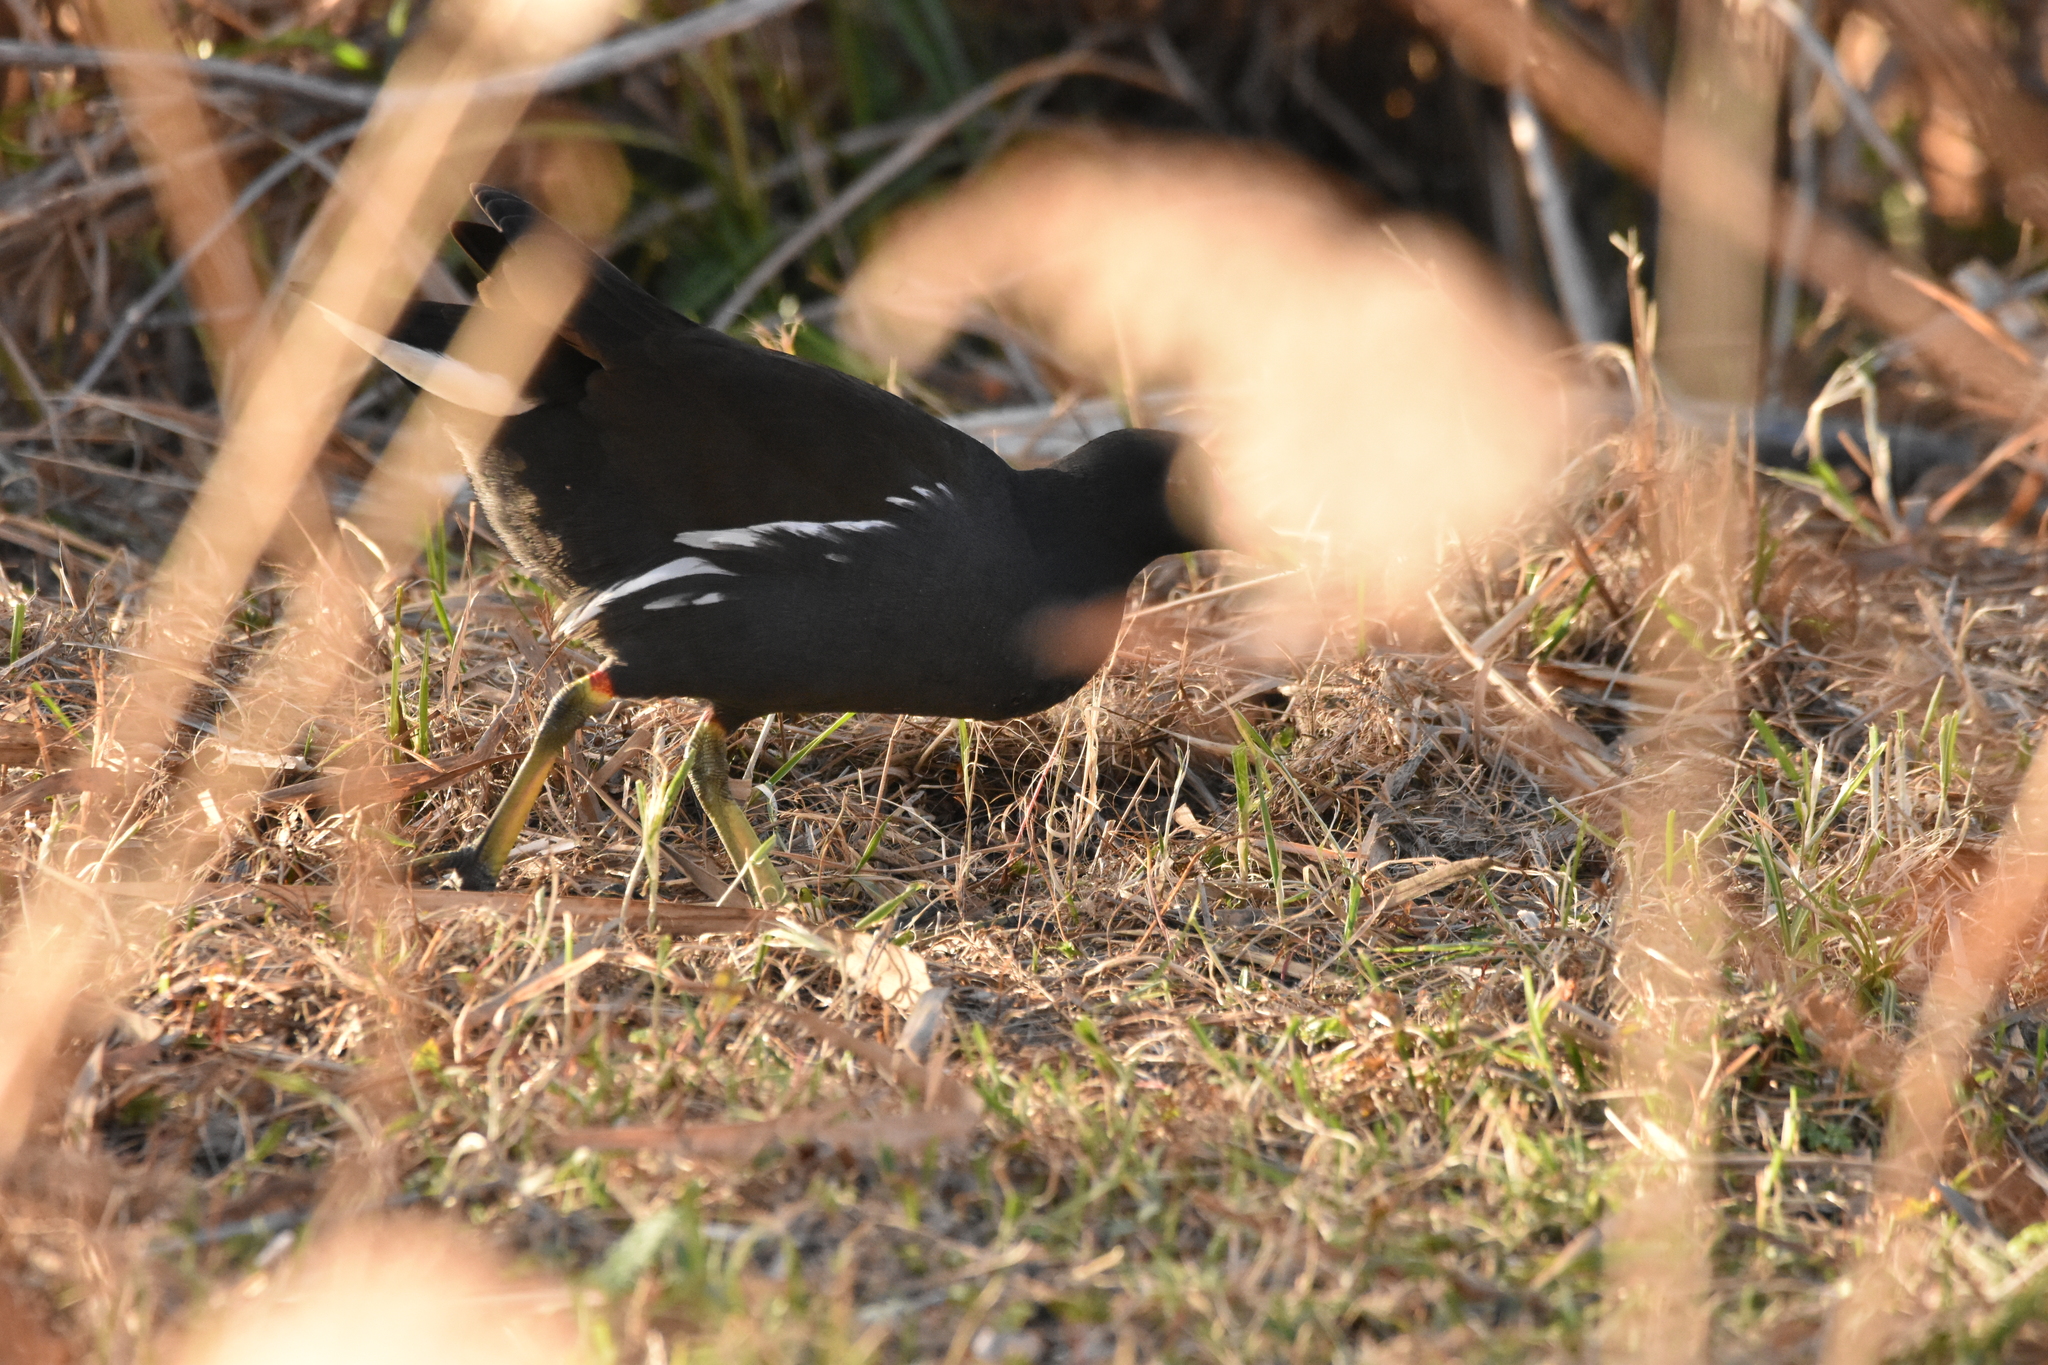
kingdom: Animalia
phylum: Chordata
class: Aves
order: Gruiformes
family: Rallidae
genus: Gallinula
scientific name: Gallinula chloropus
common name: Common moorhen
